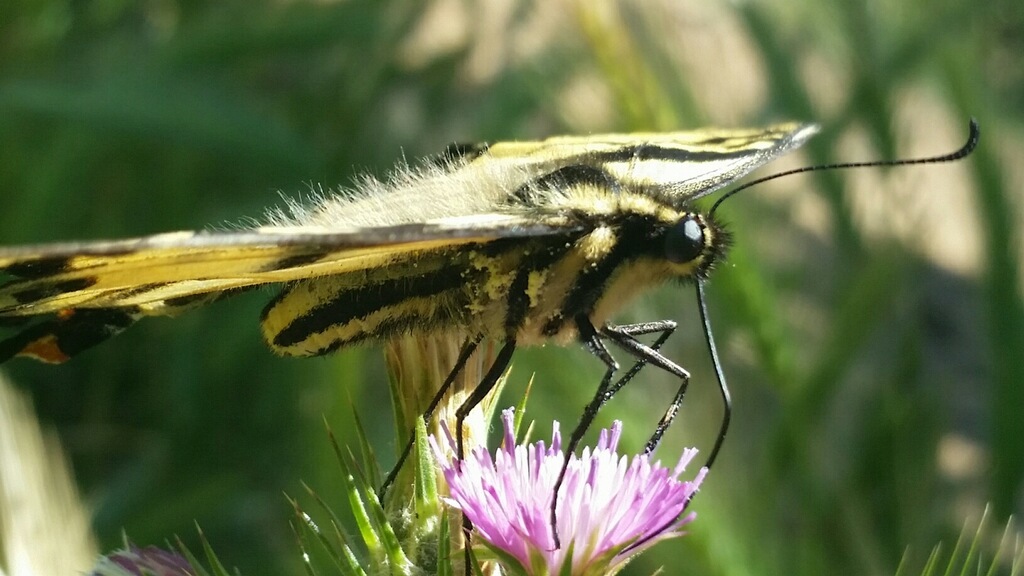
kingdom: Animalia
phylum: Arthropoda
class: Insecta
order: Lepidoptera
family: Papilionidae
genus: Papilio
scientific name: Papilio rutulus
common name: Western tiger swallowtail
